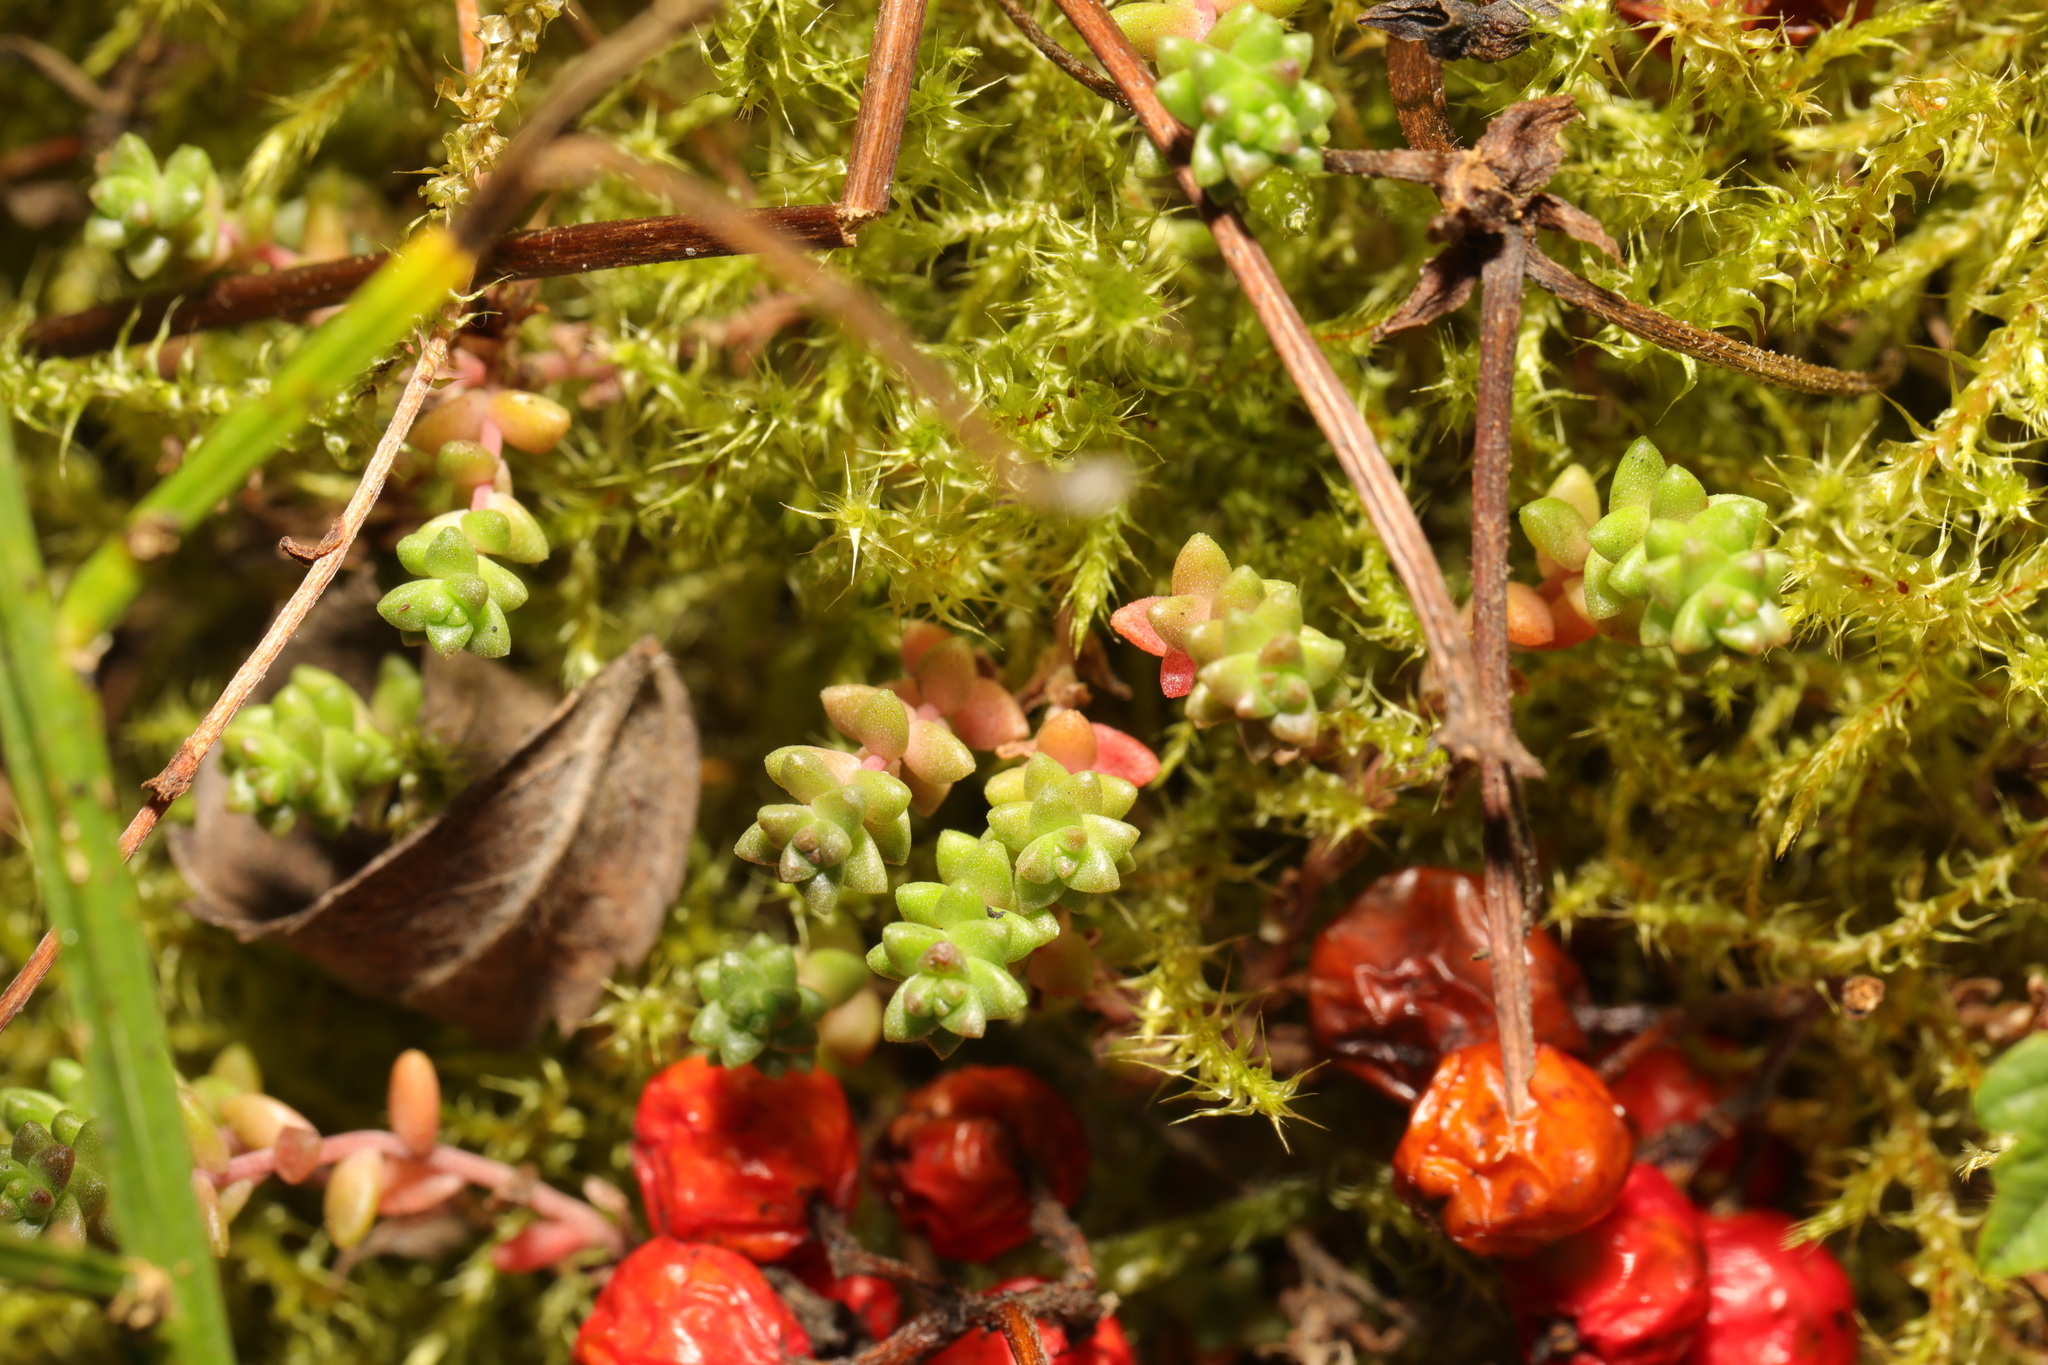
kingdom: Plantae
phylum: Tracheophyta
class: Magnoliopsida
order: Saxifragales
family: Crassulaceae
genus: Sedum
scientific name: Sedum anglicum
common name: English stonecrop
